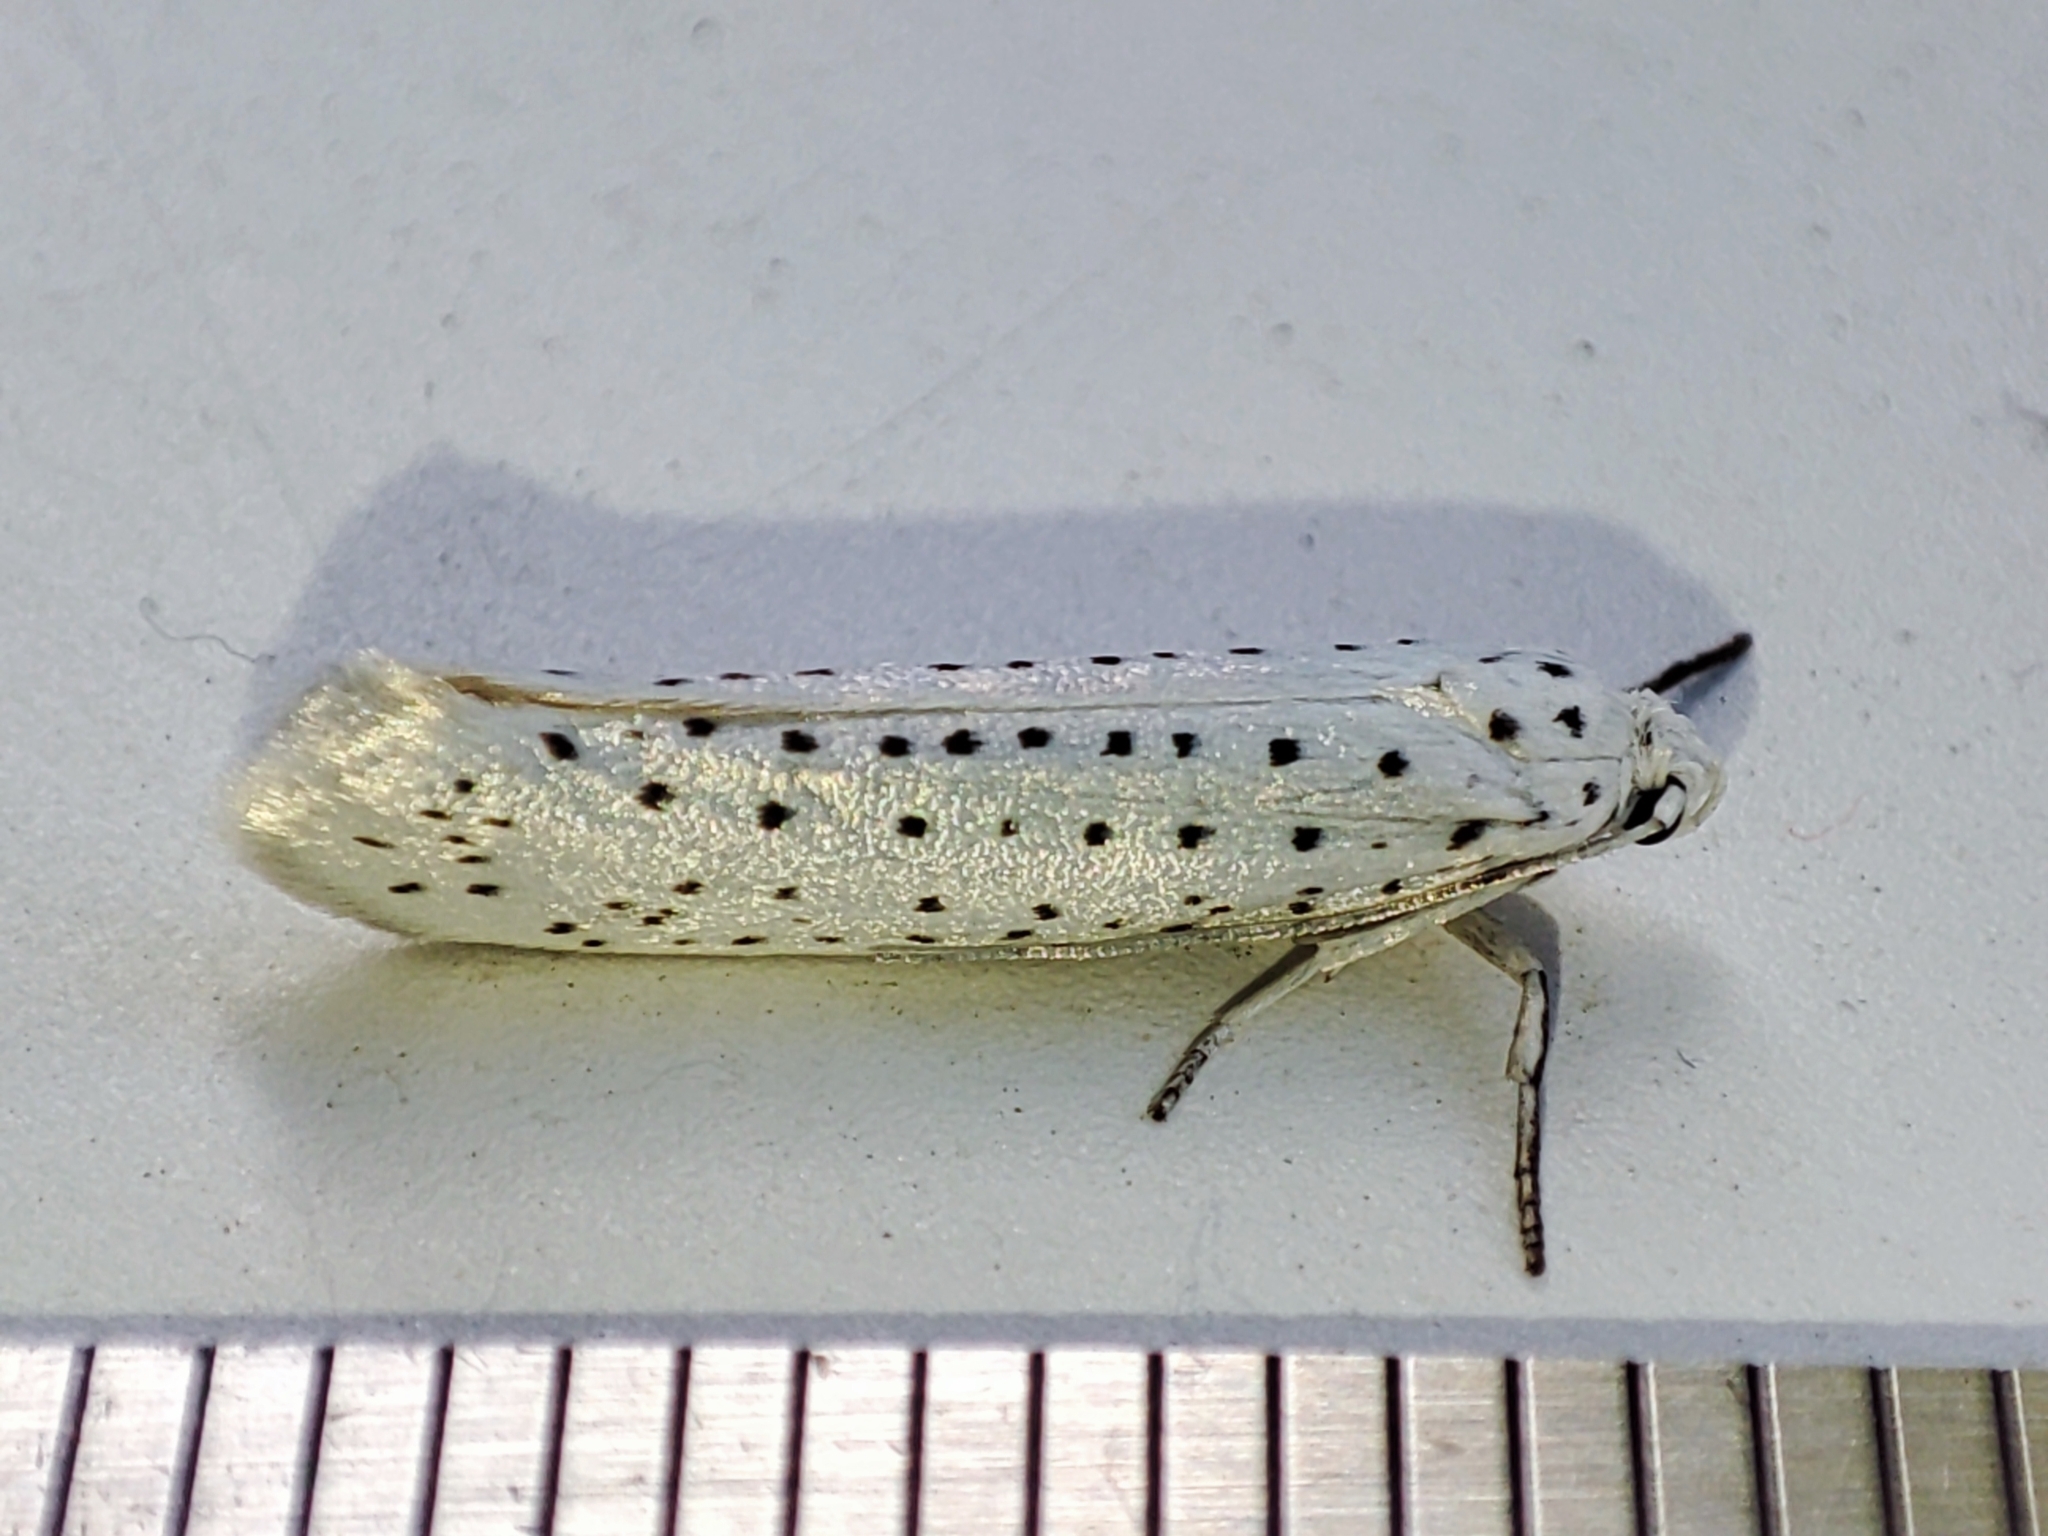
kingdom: Animalia
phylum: Arthropoda
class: Insecta
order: Lepidoptera
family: Yponomeutidae
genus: Yponomeuta
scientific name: Yponomeuta evonymella
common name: Bird-cherry ermine
